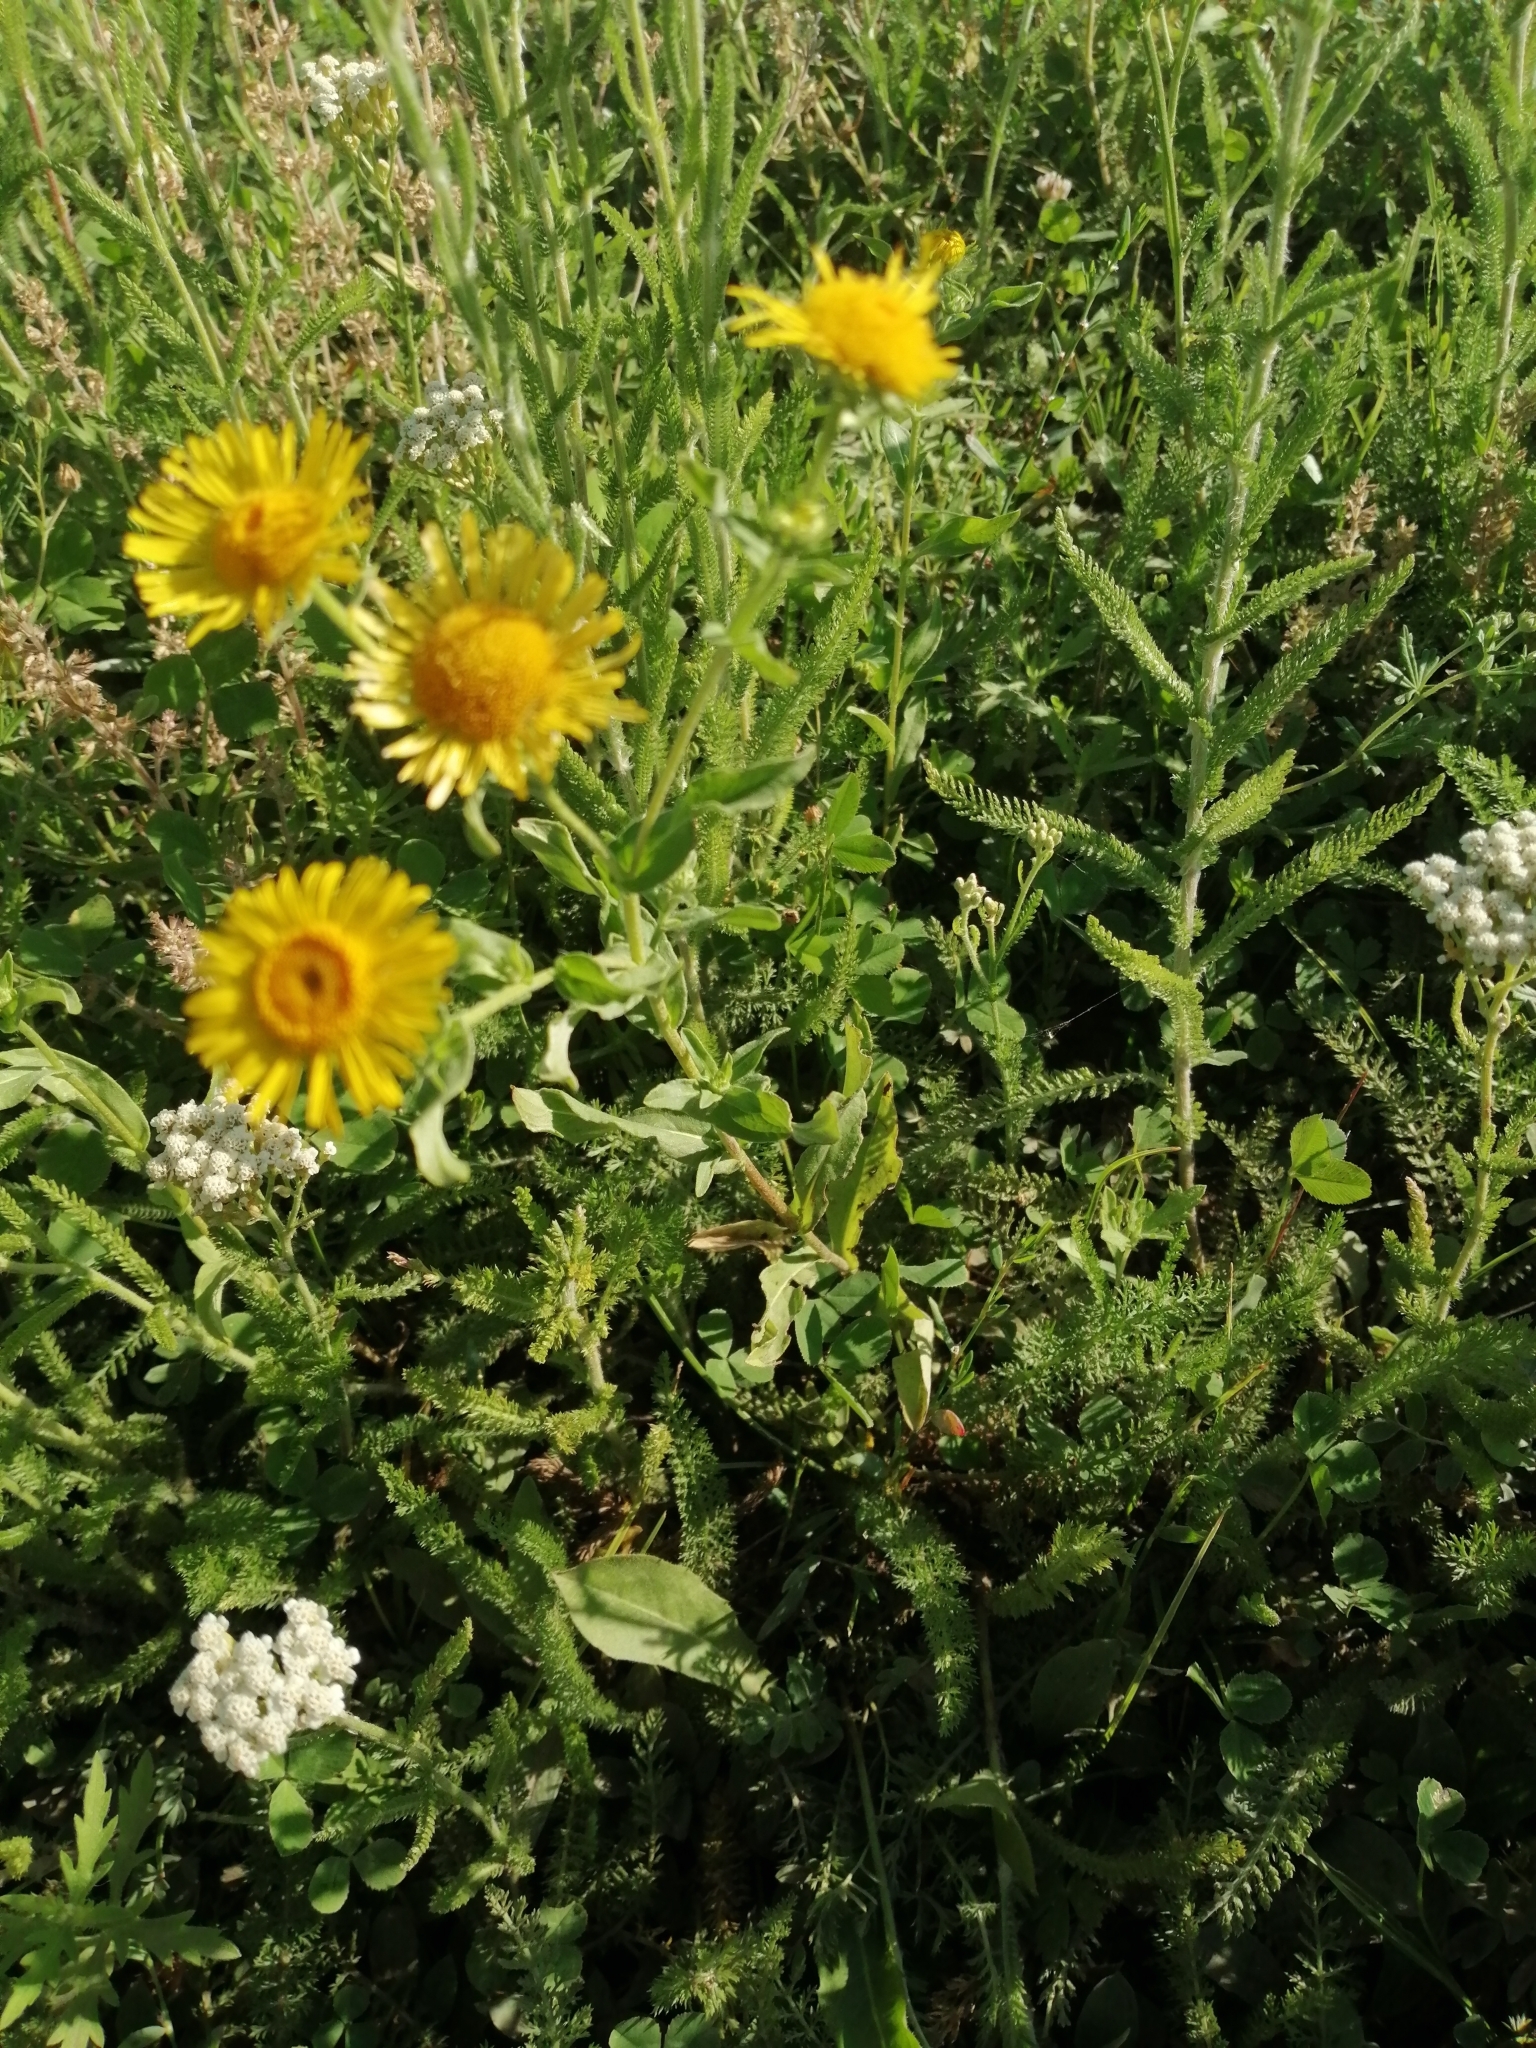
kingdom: Plantae
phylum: Tracheophyta
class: Magnoliopsida
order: Asterales
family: Asteraceae
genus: Pentanema
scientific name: Pentanema britannicum
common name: British elecampane
